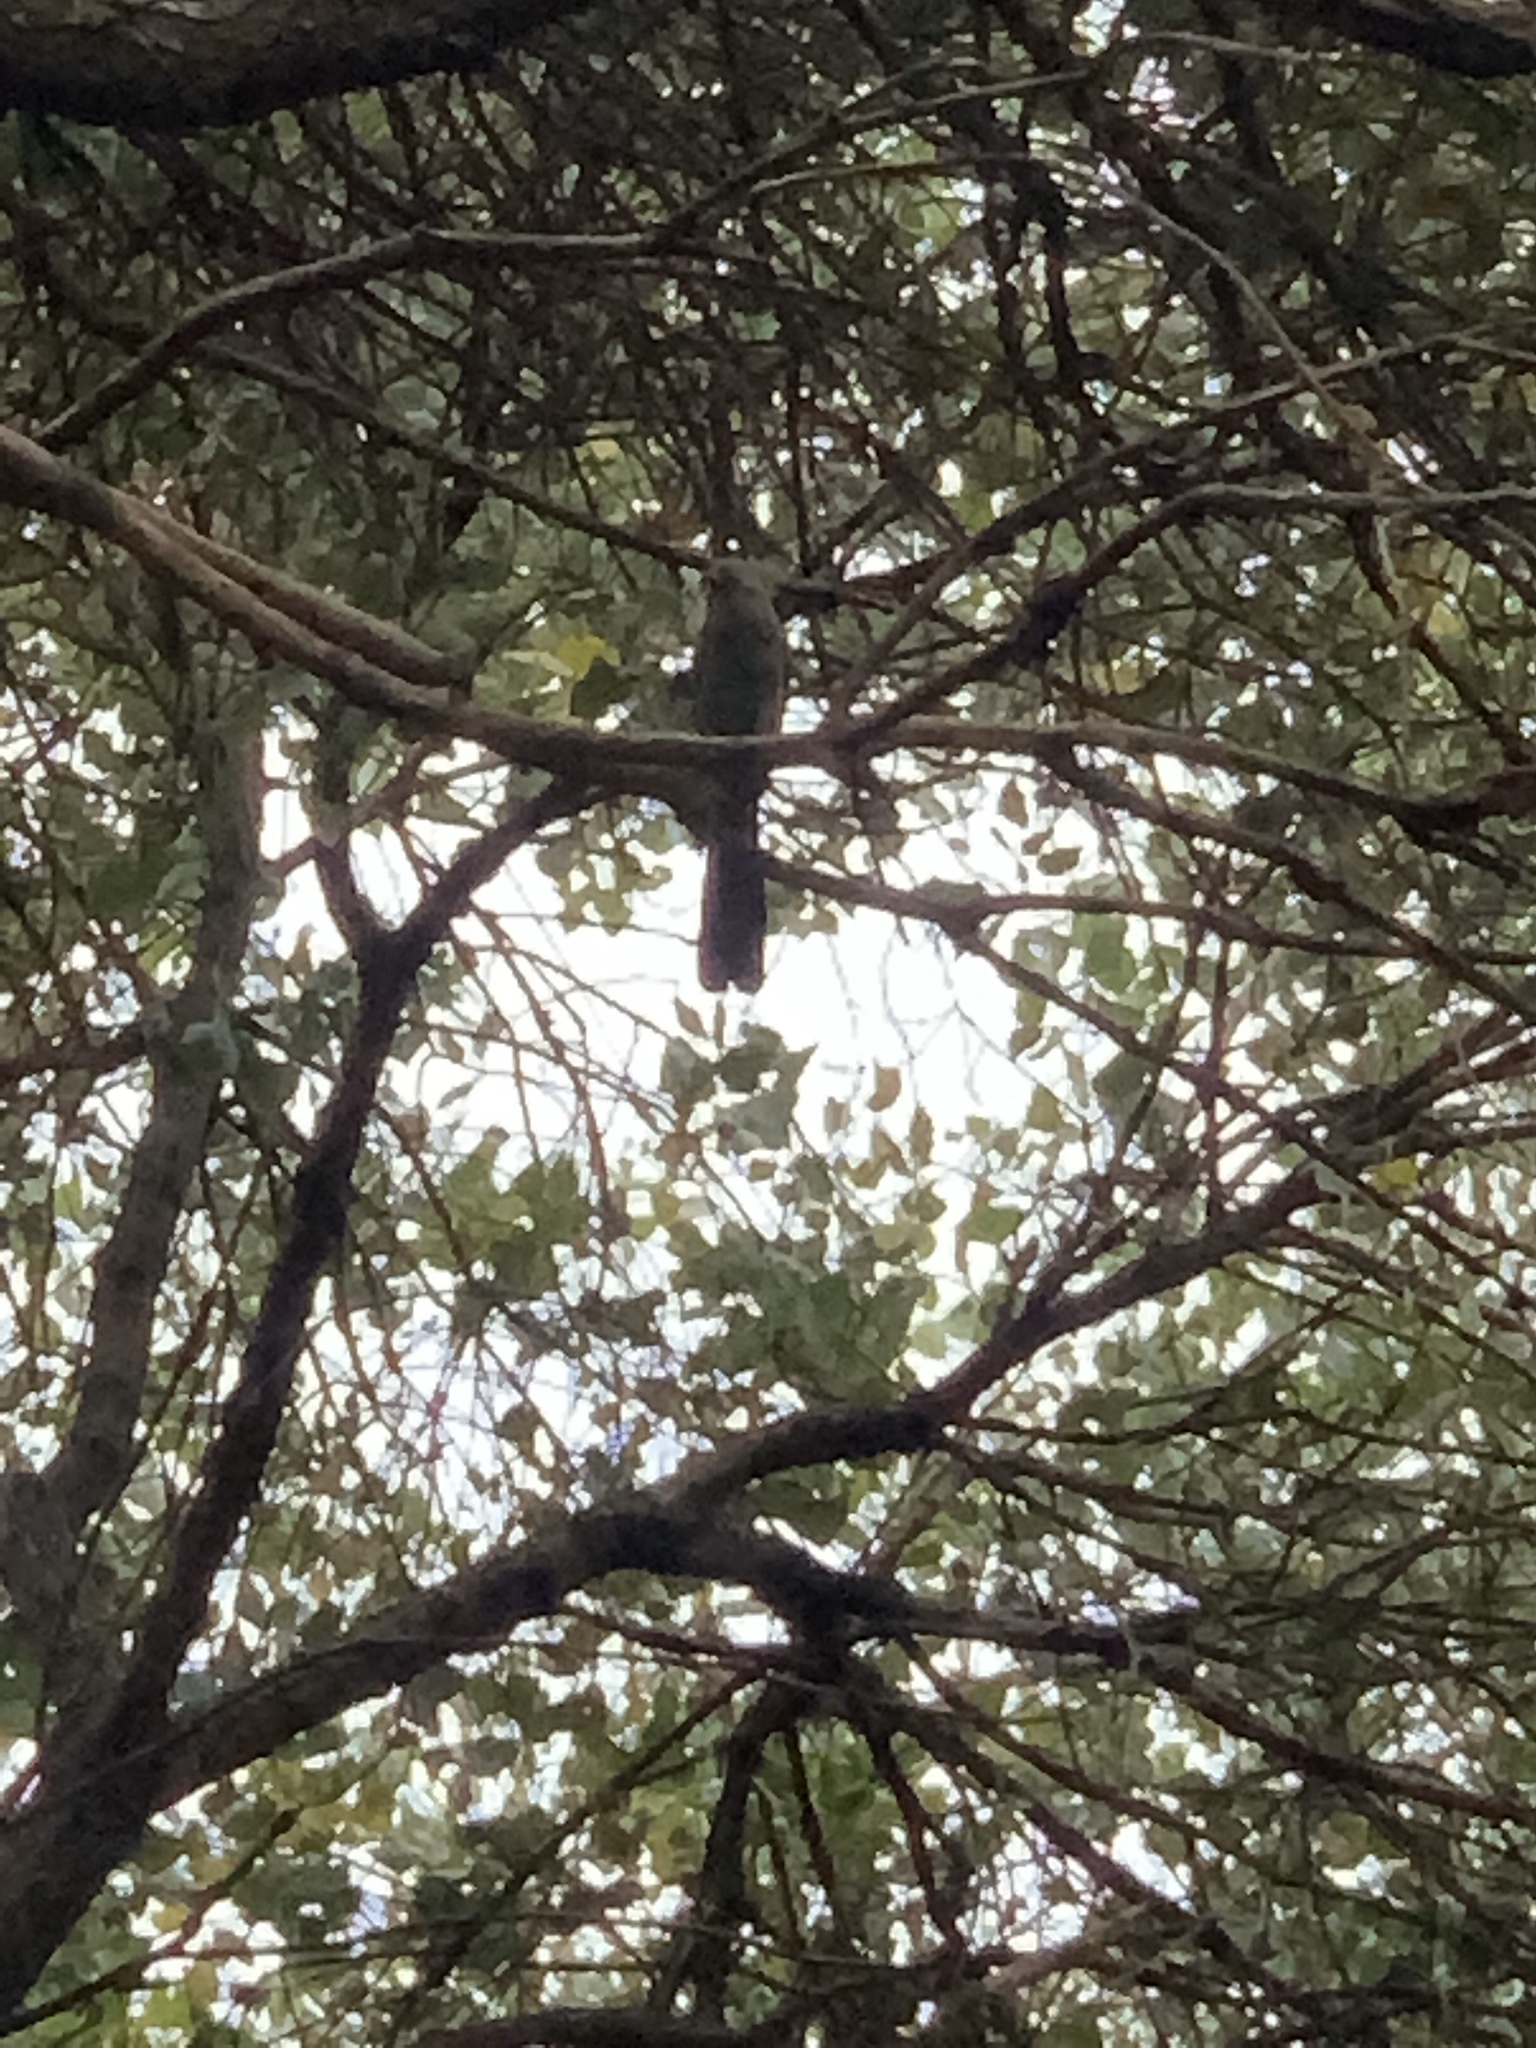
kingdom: Animalia
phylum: Chordata
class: Aves
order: Musophagiformes
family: Musophagidae
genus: Corythaixoides
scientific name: Corythaixoides concolor
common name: Grey go-away-bird
